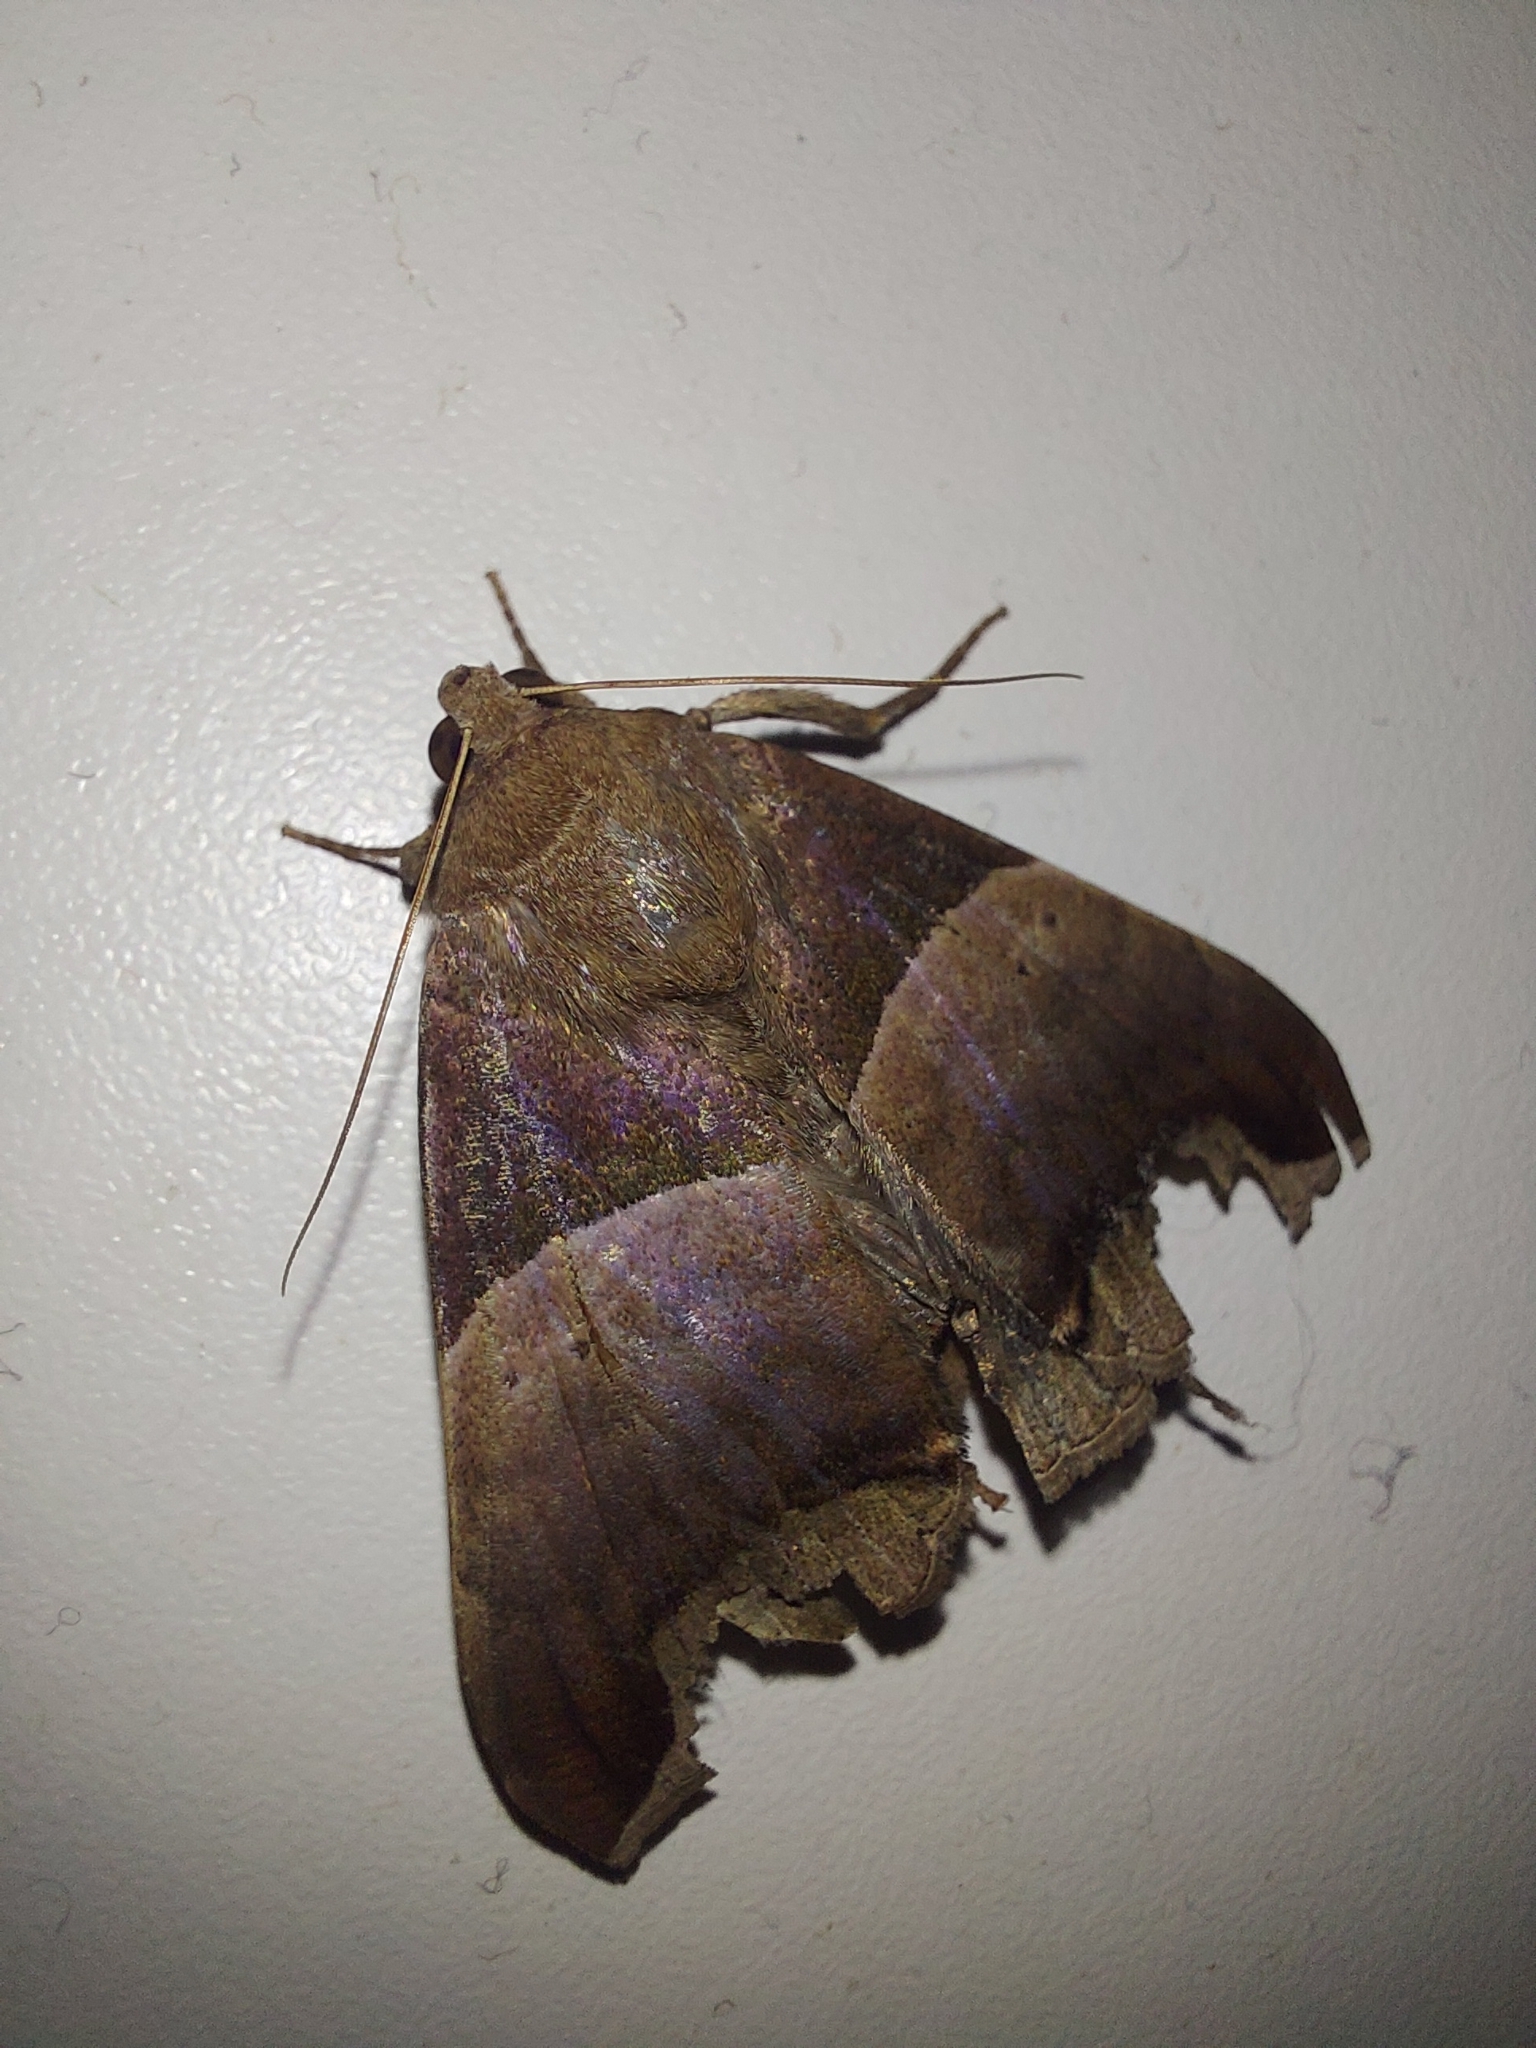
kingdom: Animalia
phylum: Arthropoda
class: Insecta
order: Lepidoptera
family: Erebidae
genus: Achaea
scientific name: Achaea echo
